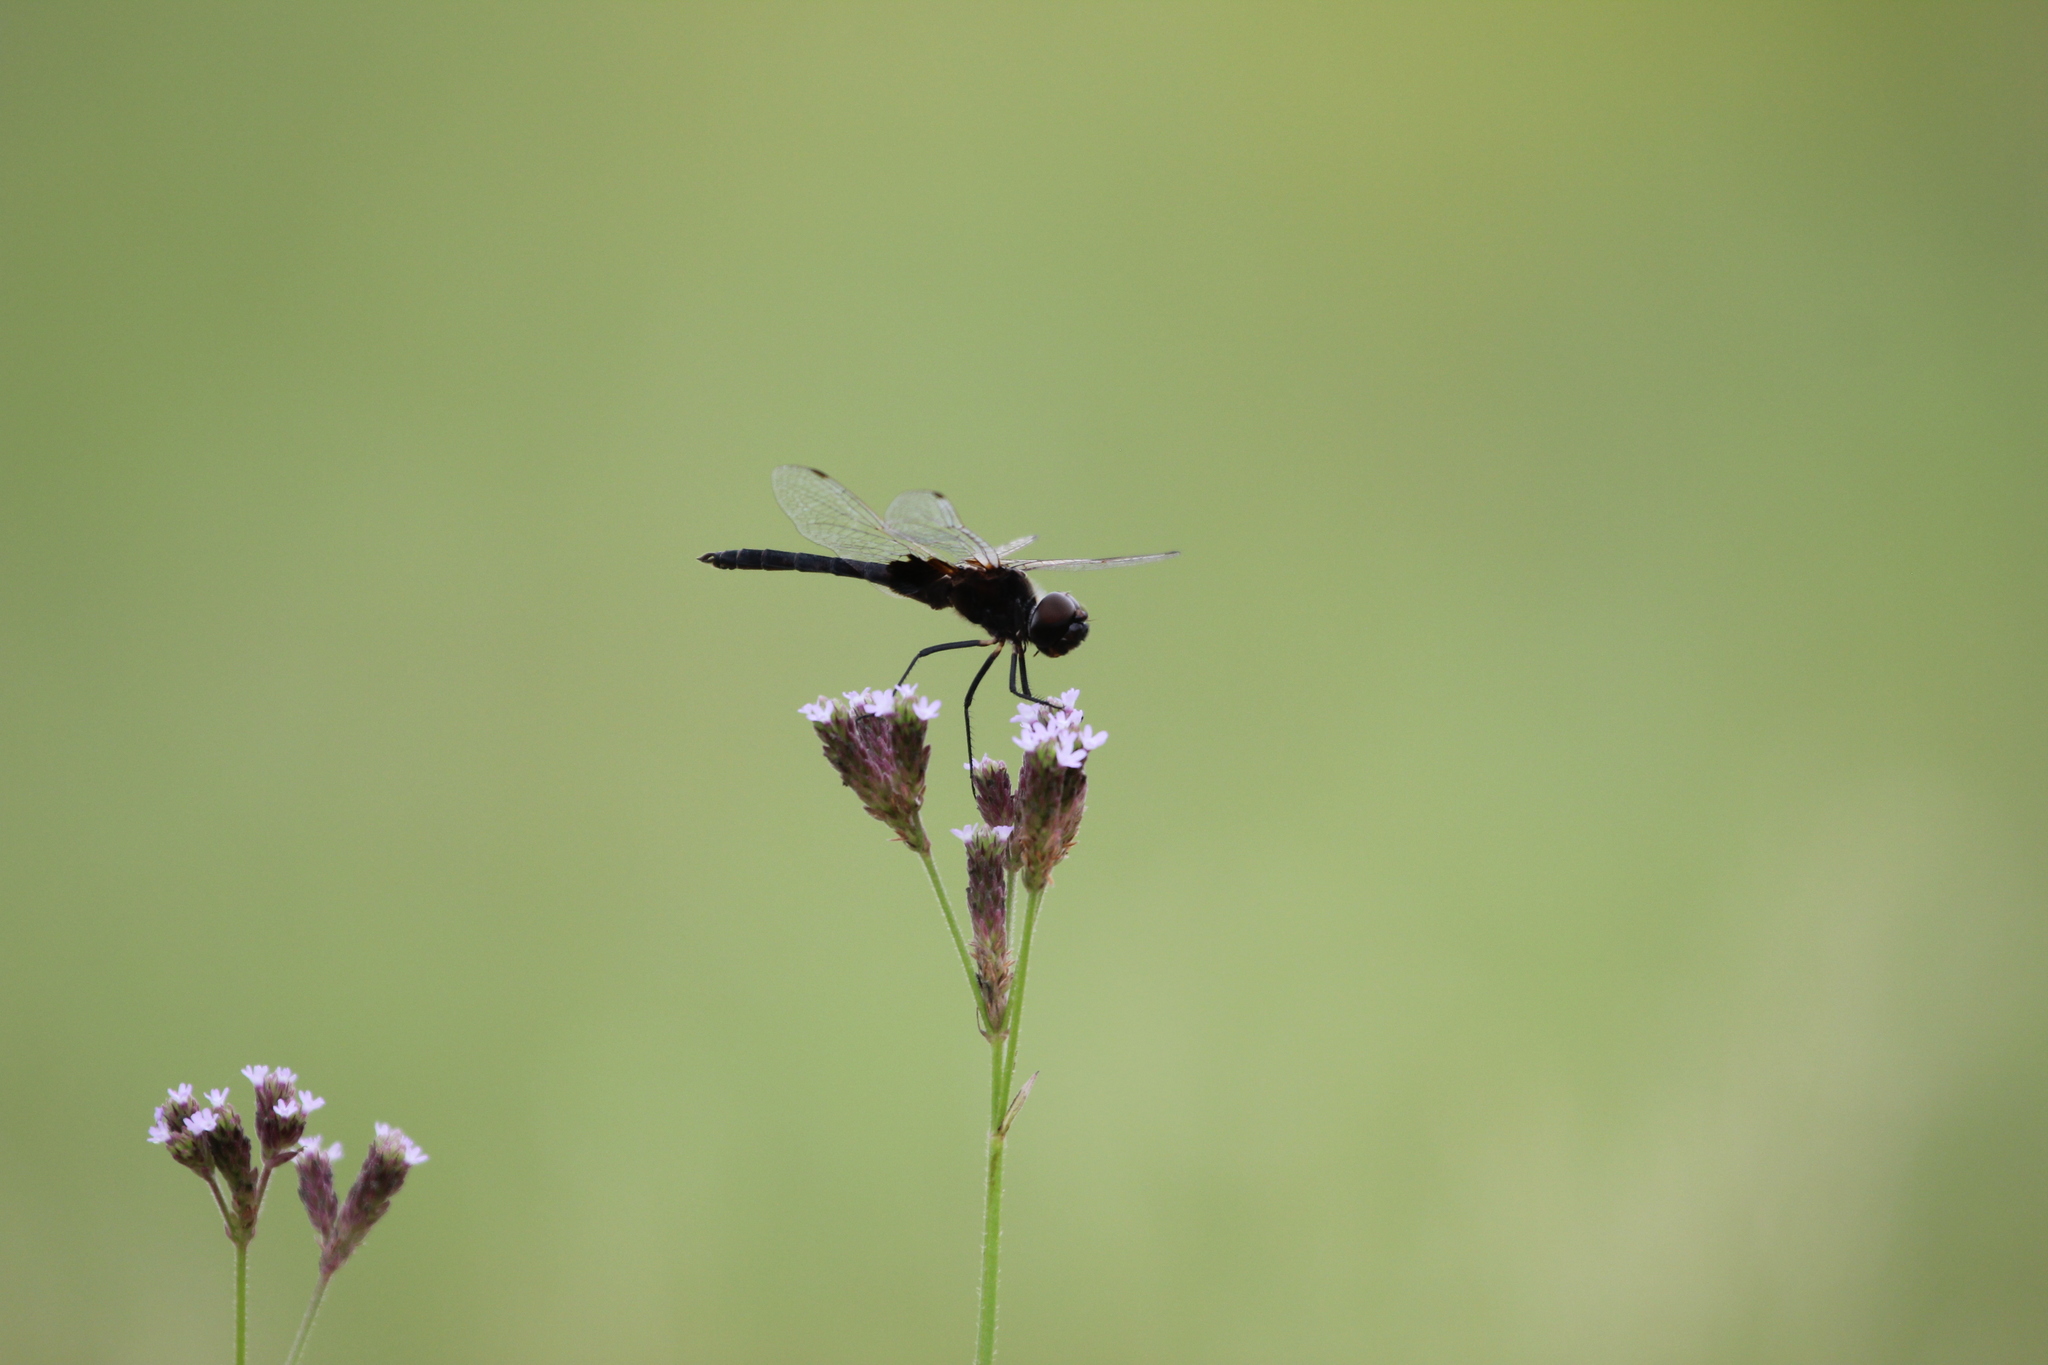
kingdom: Animalia
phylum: Arthropoda
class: Insecta
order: Odonata
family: Libellulidae
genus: Macrodiplax
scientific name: Macrodiplax balteata
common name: Marl pennant
